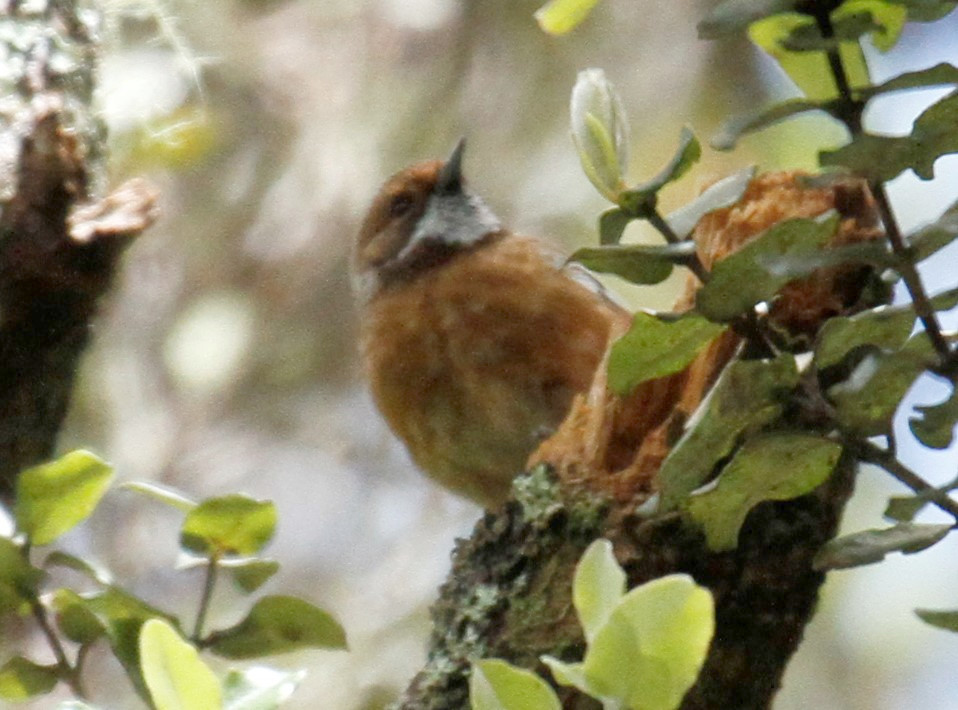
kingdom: Animalia
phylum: Chordata
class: Aves
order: Passeriformes
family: Monarchidae
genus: Chasiempis
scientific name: Chasiempis sandwichensis
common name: Hawaii elepaio
